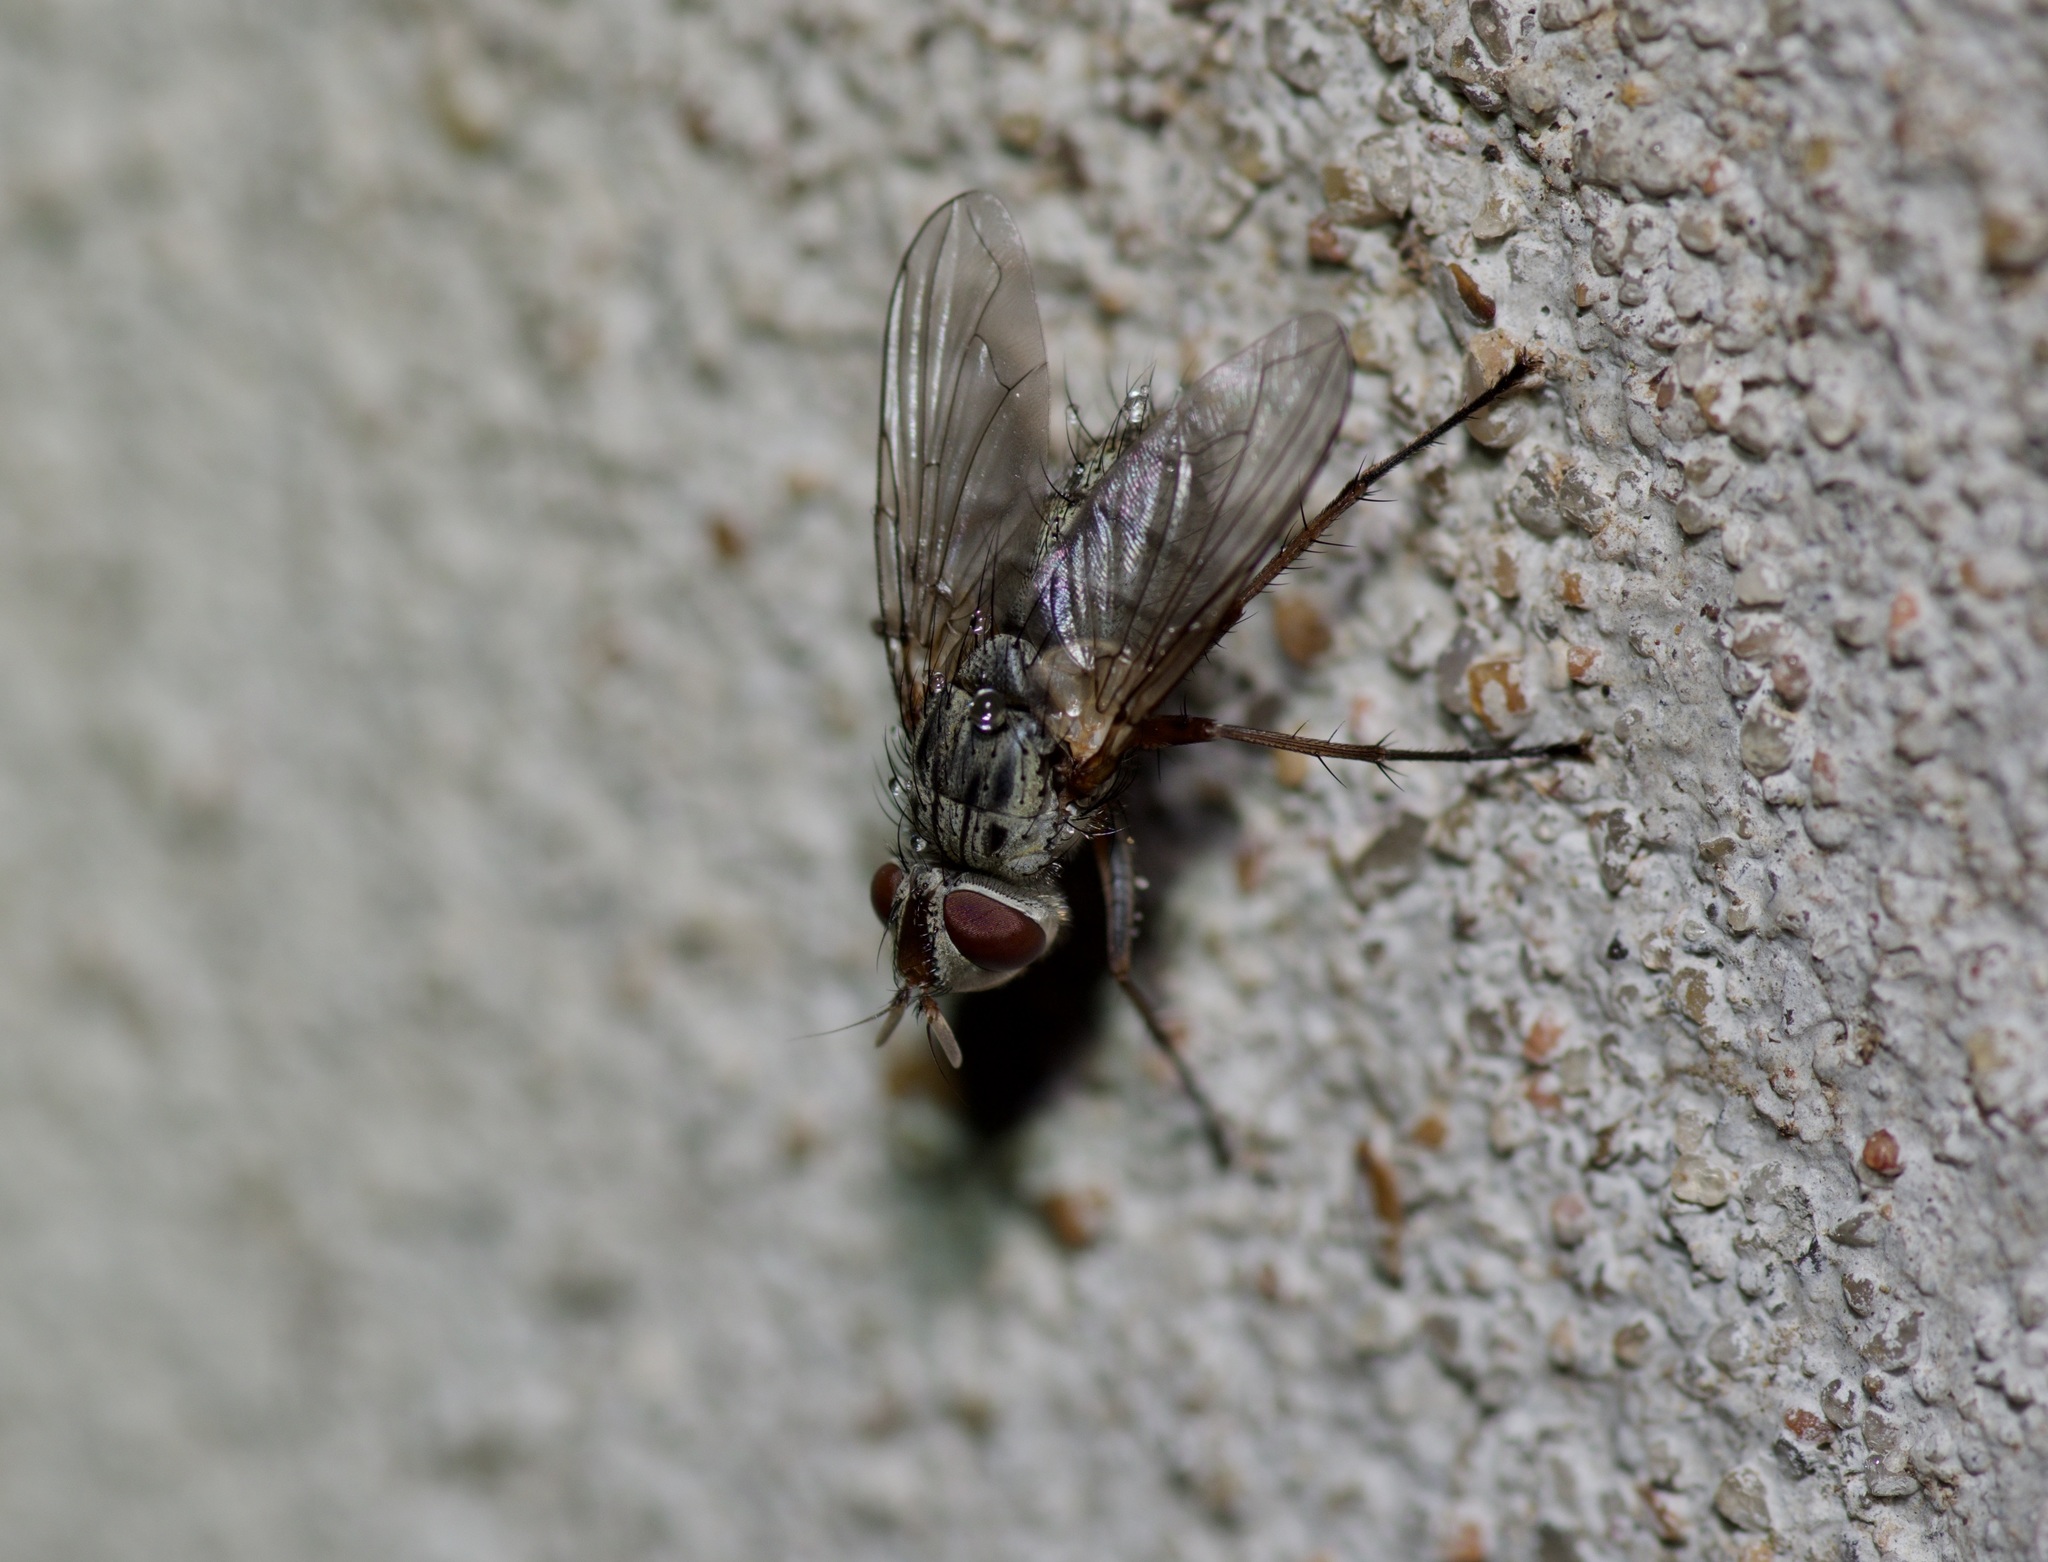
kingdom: Animalia
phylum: Arthropoda
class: Insecta
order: Diptera
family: Tachinidae
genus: Cryptomeigenia
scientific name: Cryptomeigenia
